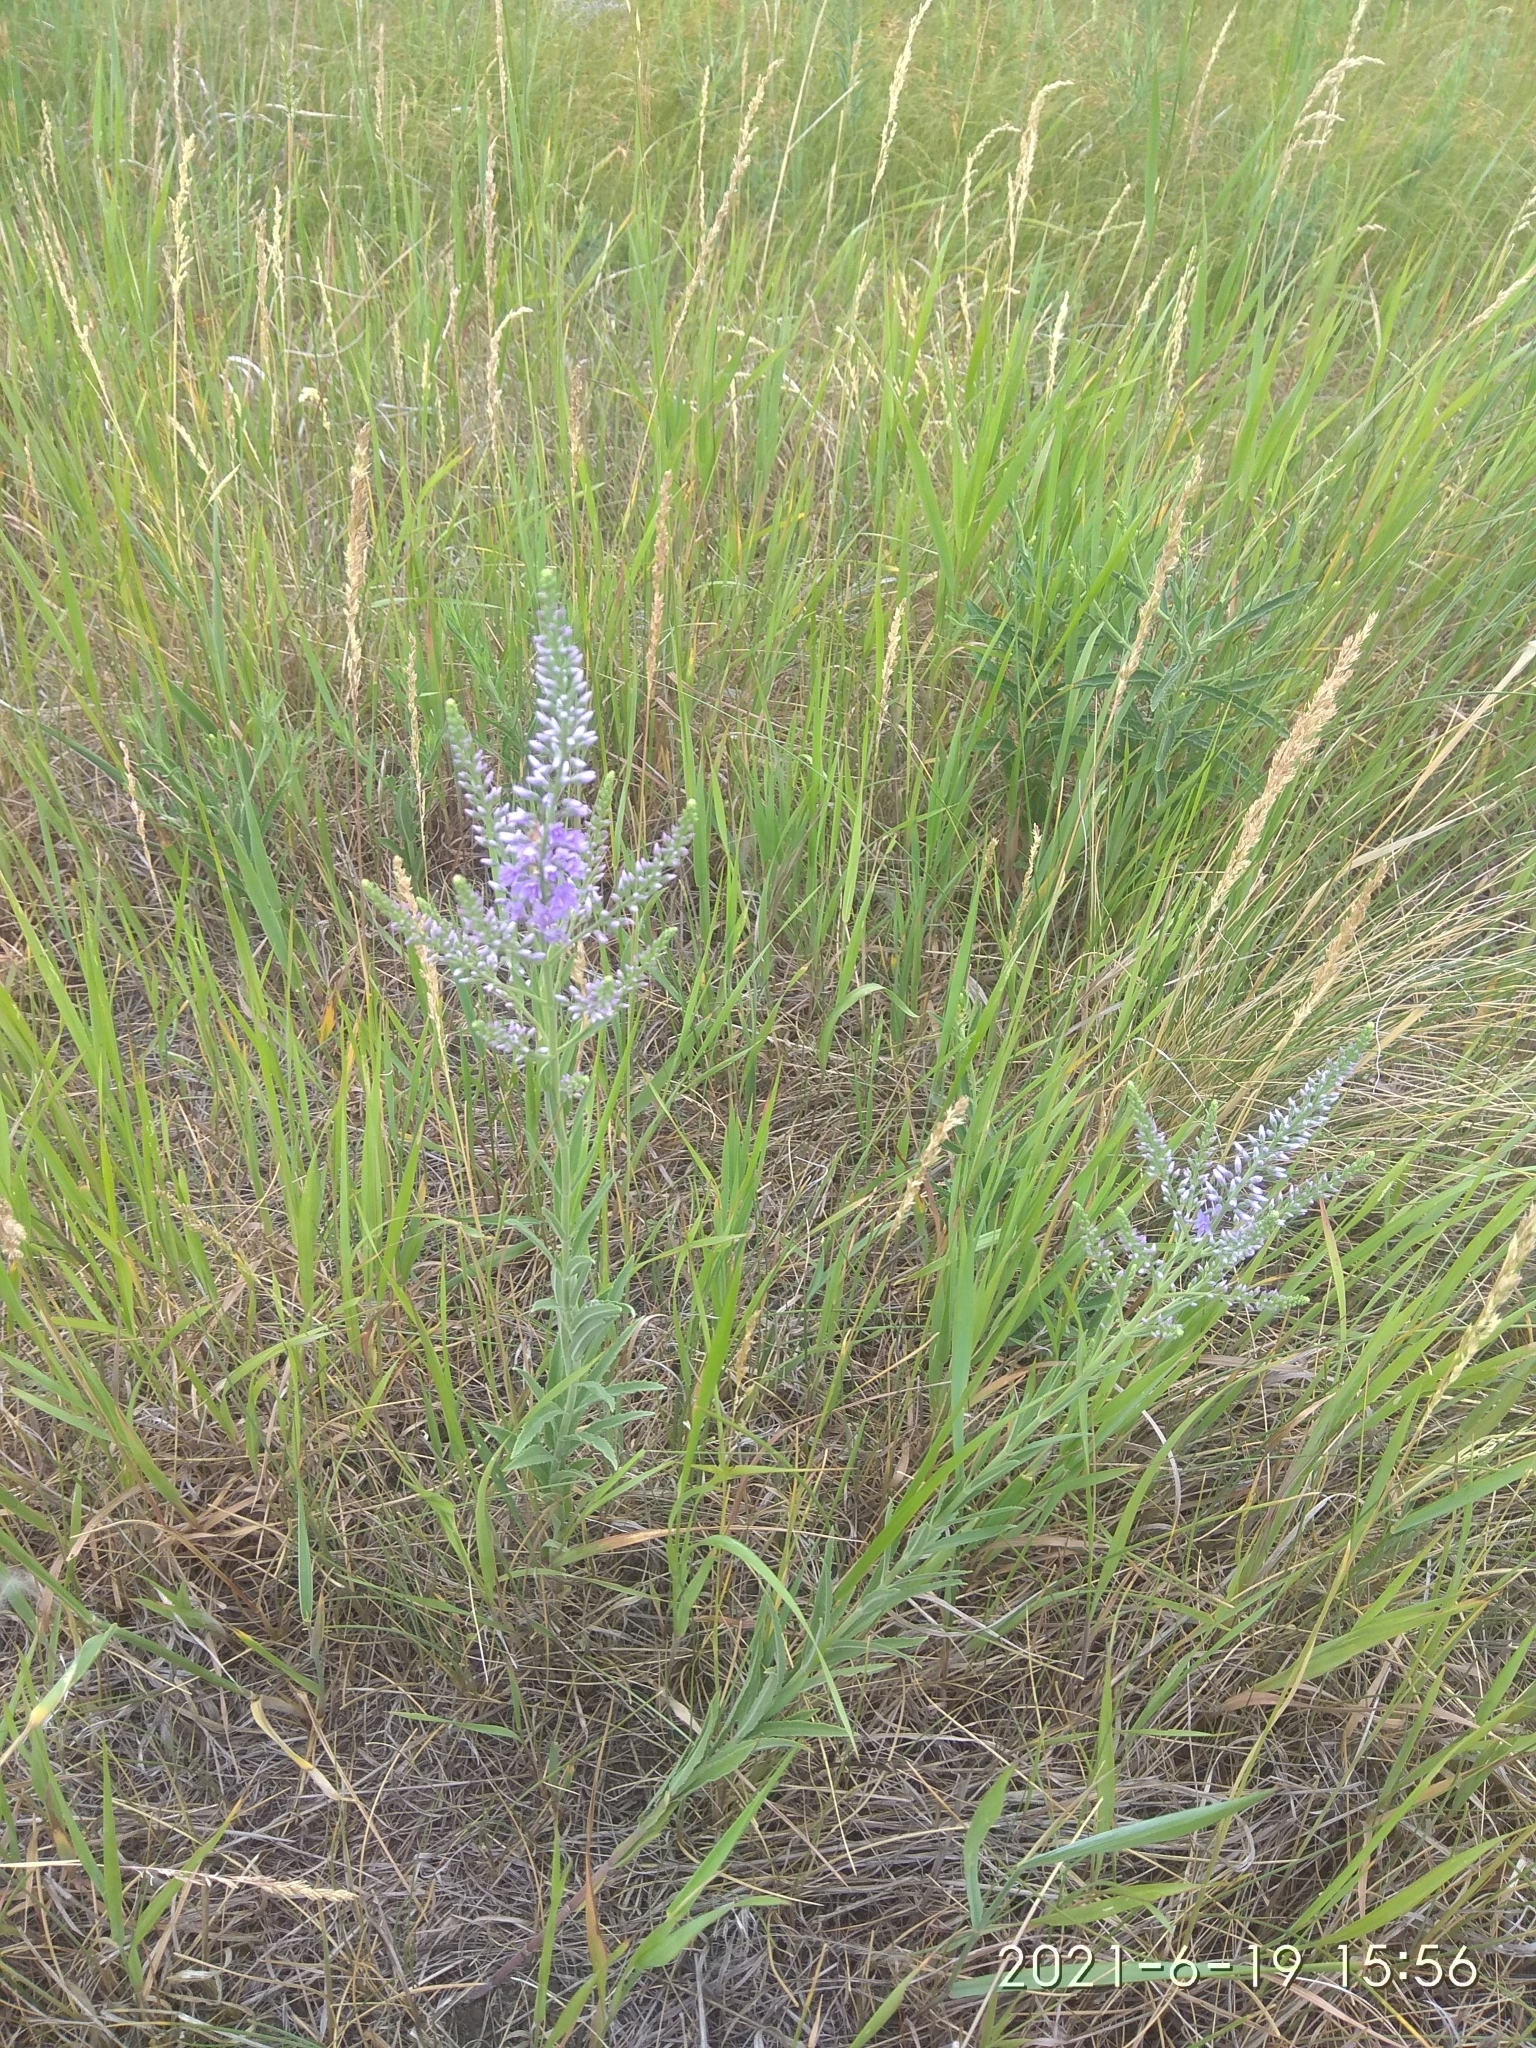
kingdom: Plantae
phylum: Tracheophyta
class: Magnoliopsida
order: Lamiales
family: Plantaginaceae
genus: Veronica
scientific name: Veronica spuria
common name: Bastard speedwell
